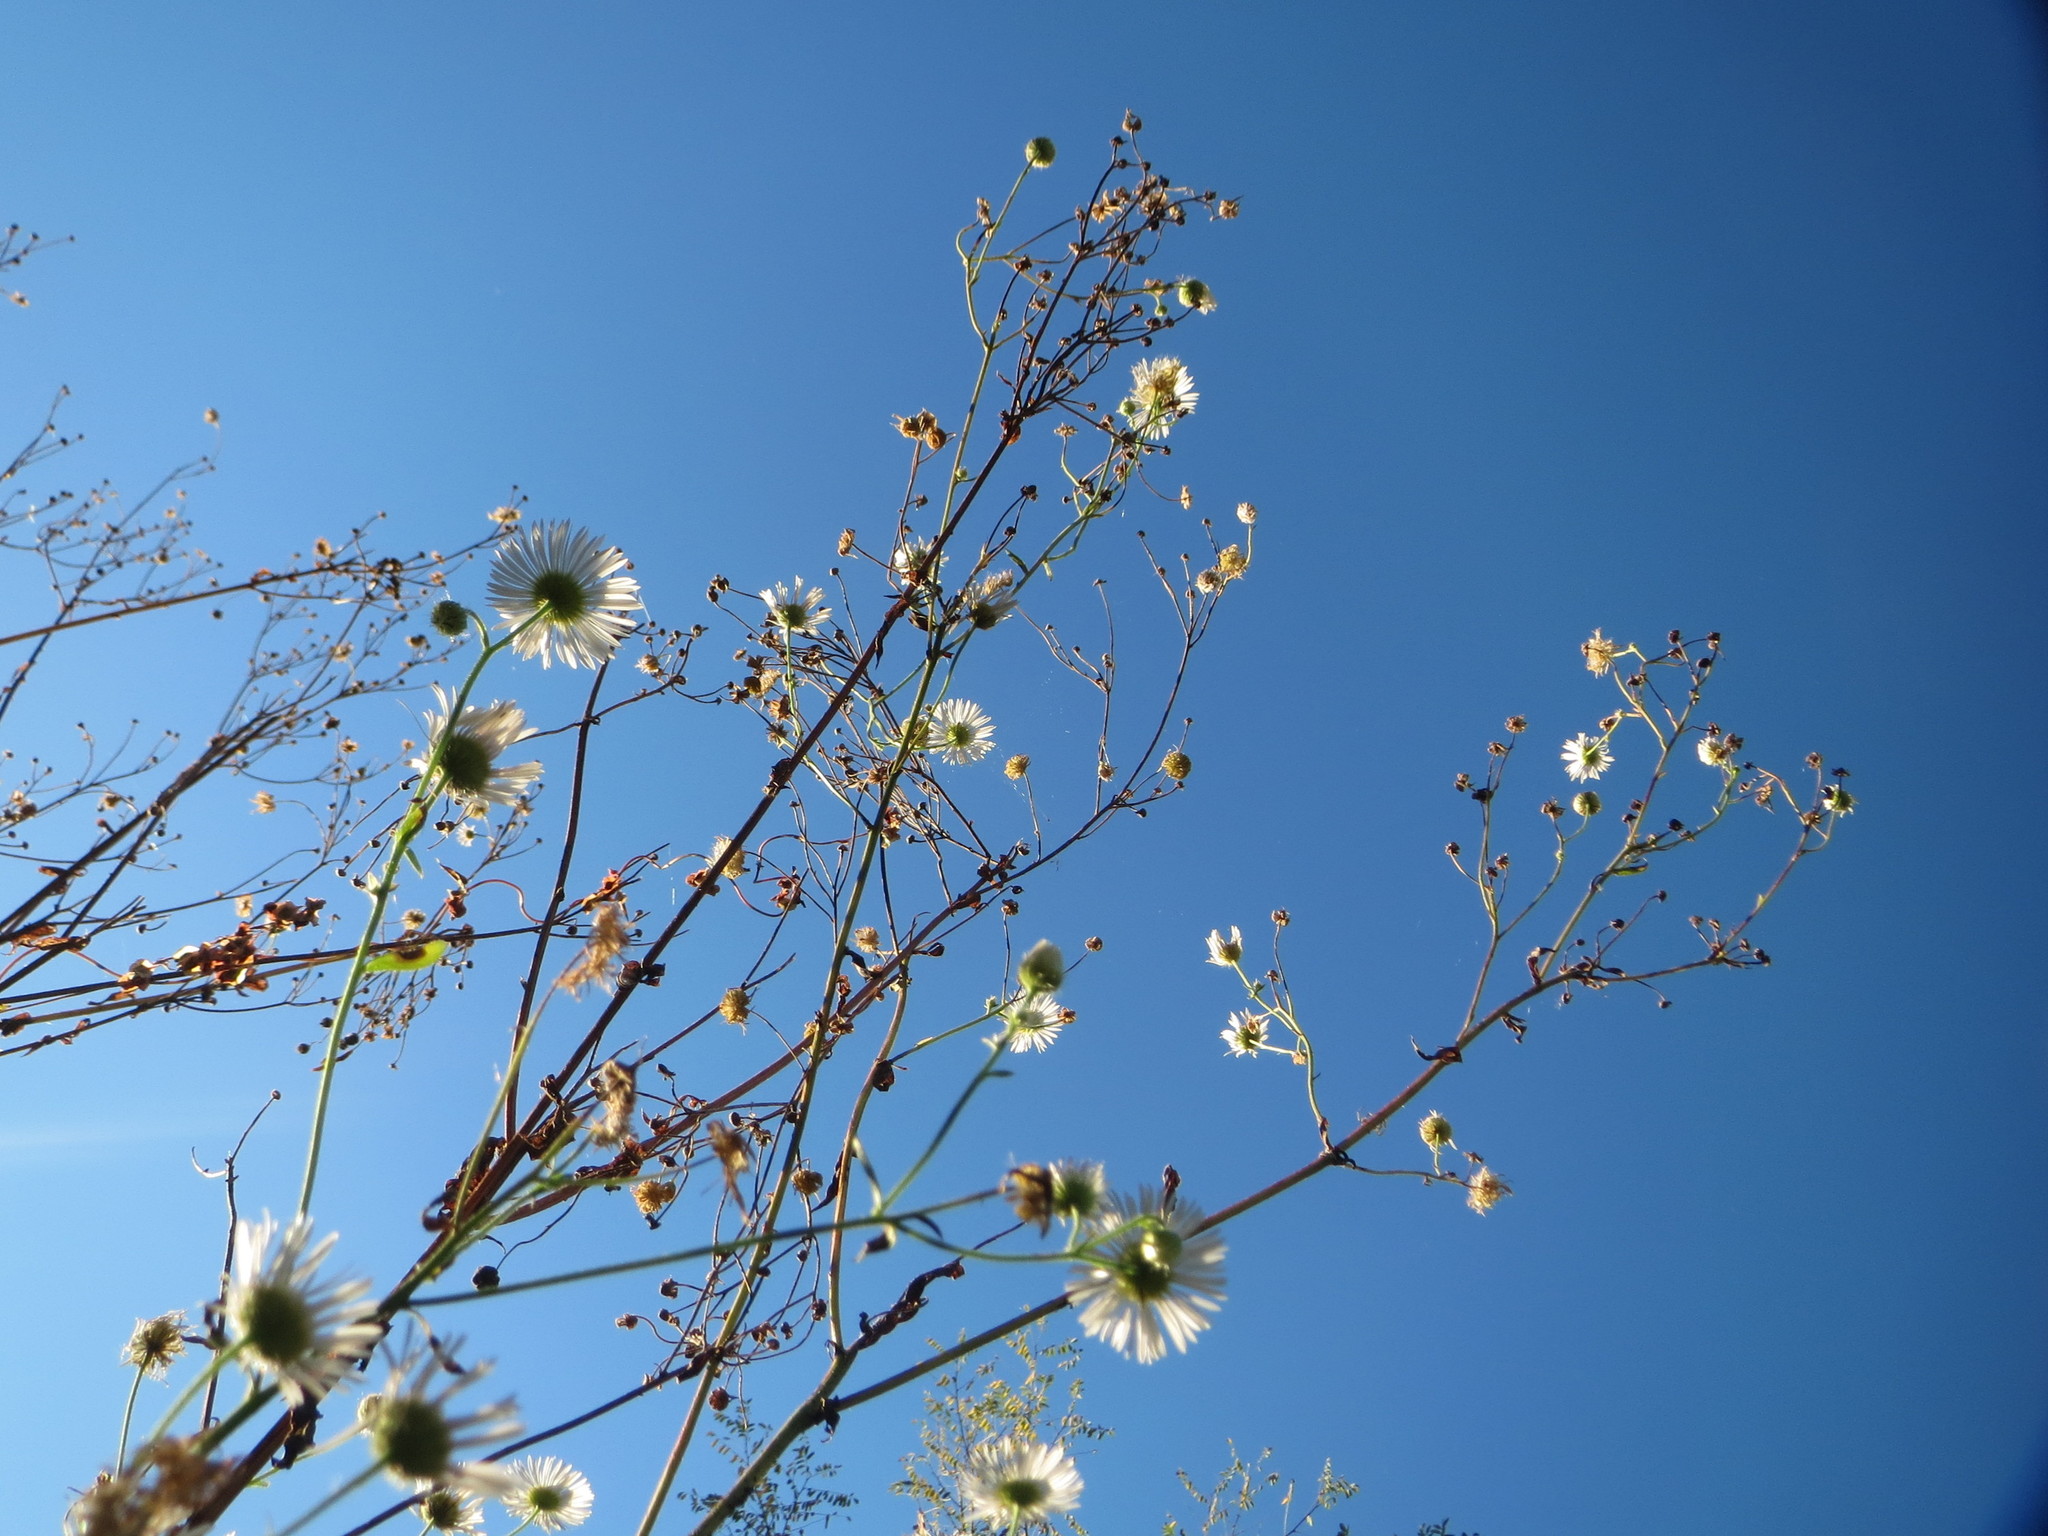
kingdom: Plantae
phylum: Tracheophyta
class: Magnoliopsida
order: Asterales
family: Asteraceae
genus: Erigeron
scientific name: Erigeron annuus
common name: Tall fleabane
